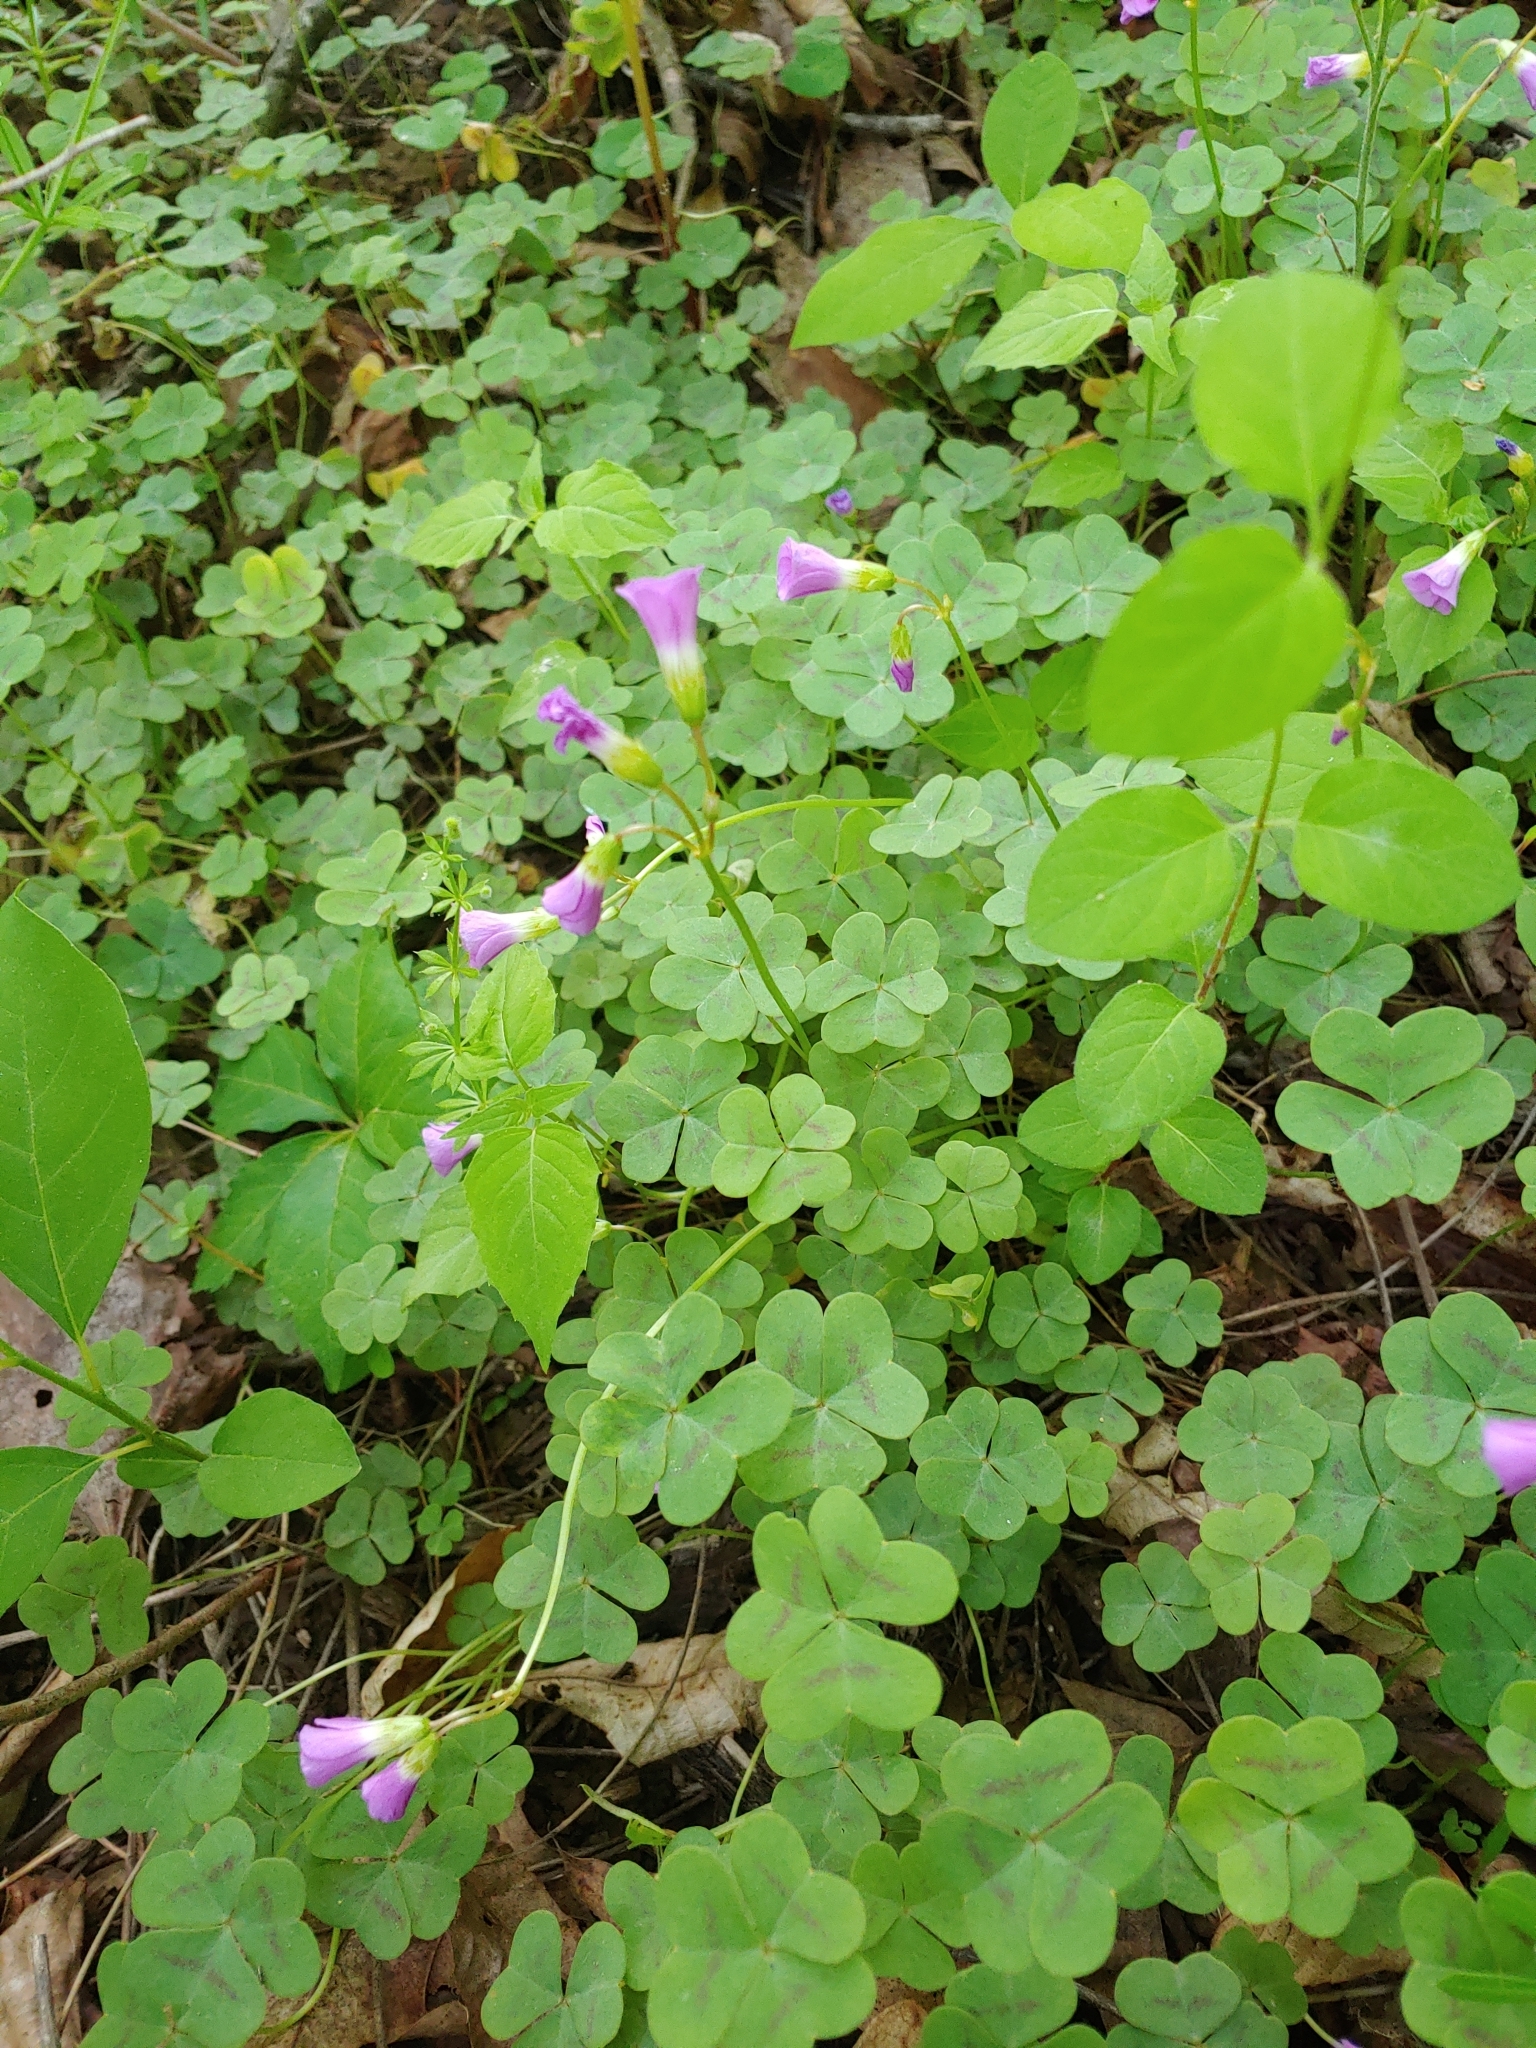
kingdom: Plantae
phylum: Tracheophyta
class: Magnoliopsida
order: Oxalidales
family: Oxalidaceae
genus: Oxalis
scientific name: Oxalis violacea
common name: Violet wood-sorrel
